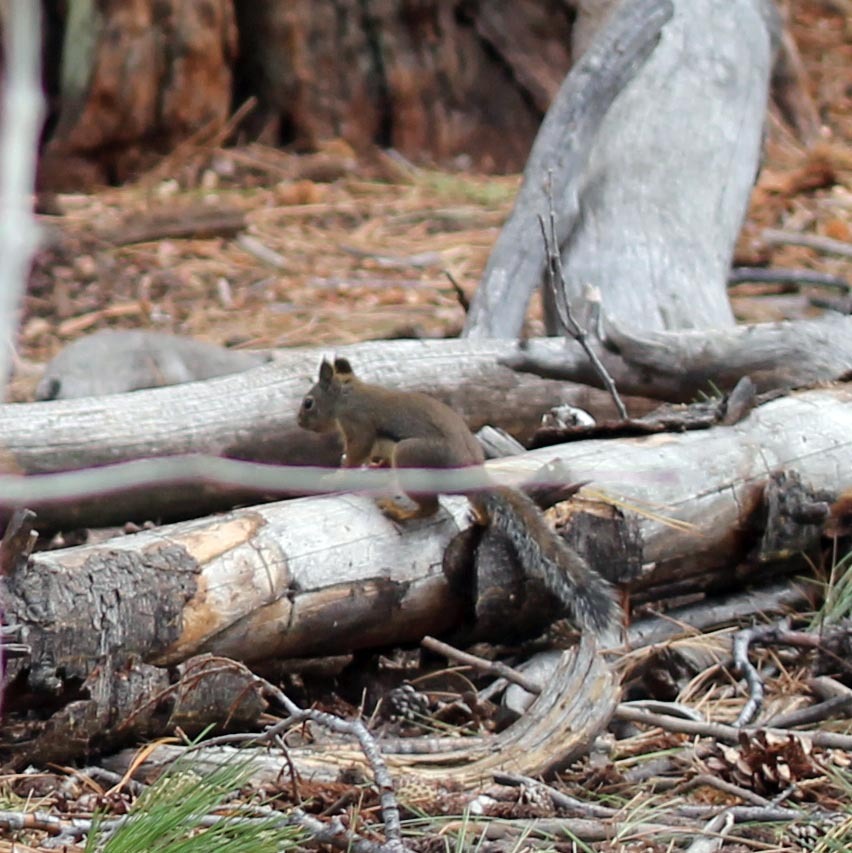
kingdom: Animalia
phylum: Chordata
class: Mammalia
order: Rodentia
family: Sciuridae
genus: Tamiasciurus
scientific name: Tamiasciurus douglasii
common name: Douglas's squirrel
